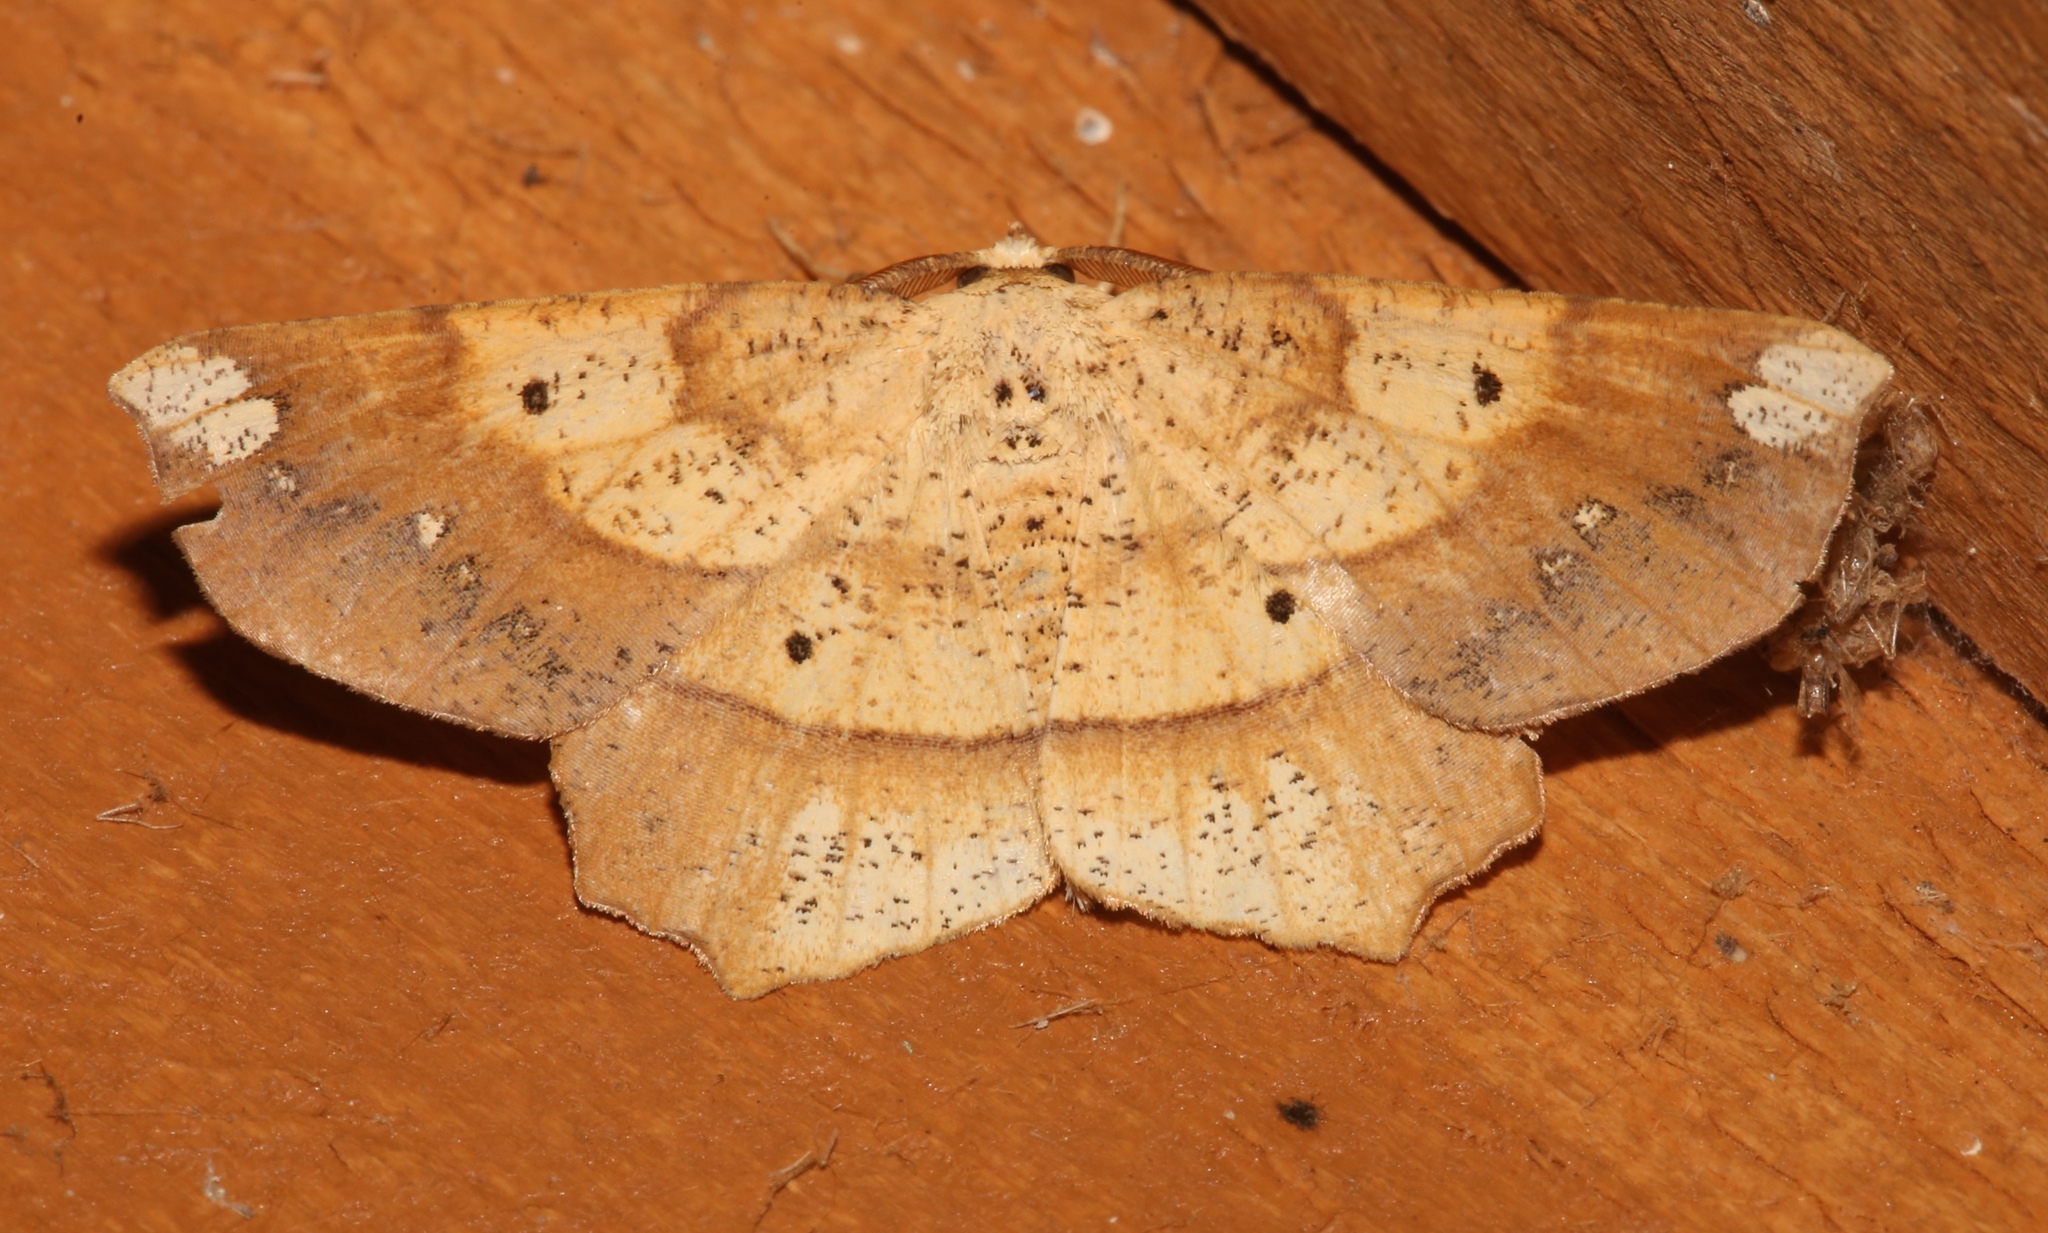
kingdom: Animalia
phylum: Arthropoda
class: Insecta
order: Lepidoptera
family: Geometridae
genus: Euchlaena
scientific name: Euchlaena amoenaria
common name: Deep yellow euchlaena
